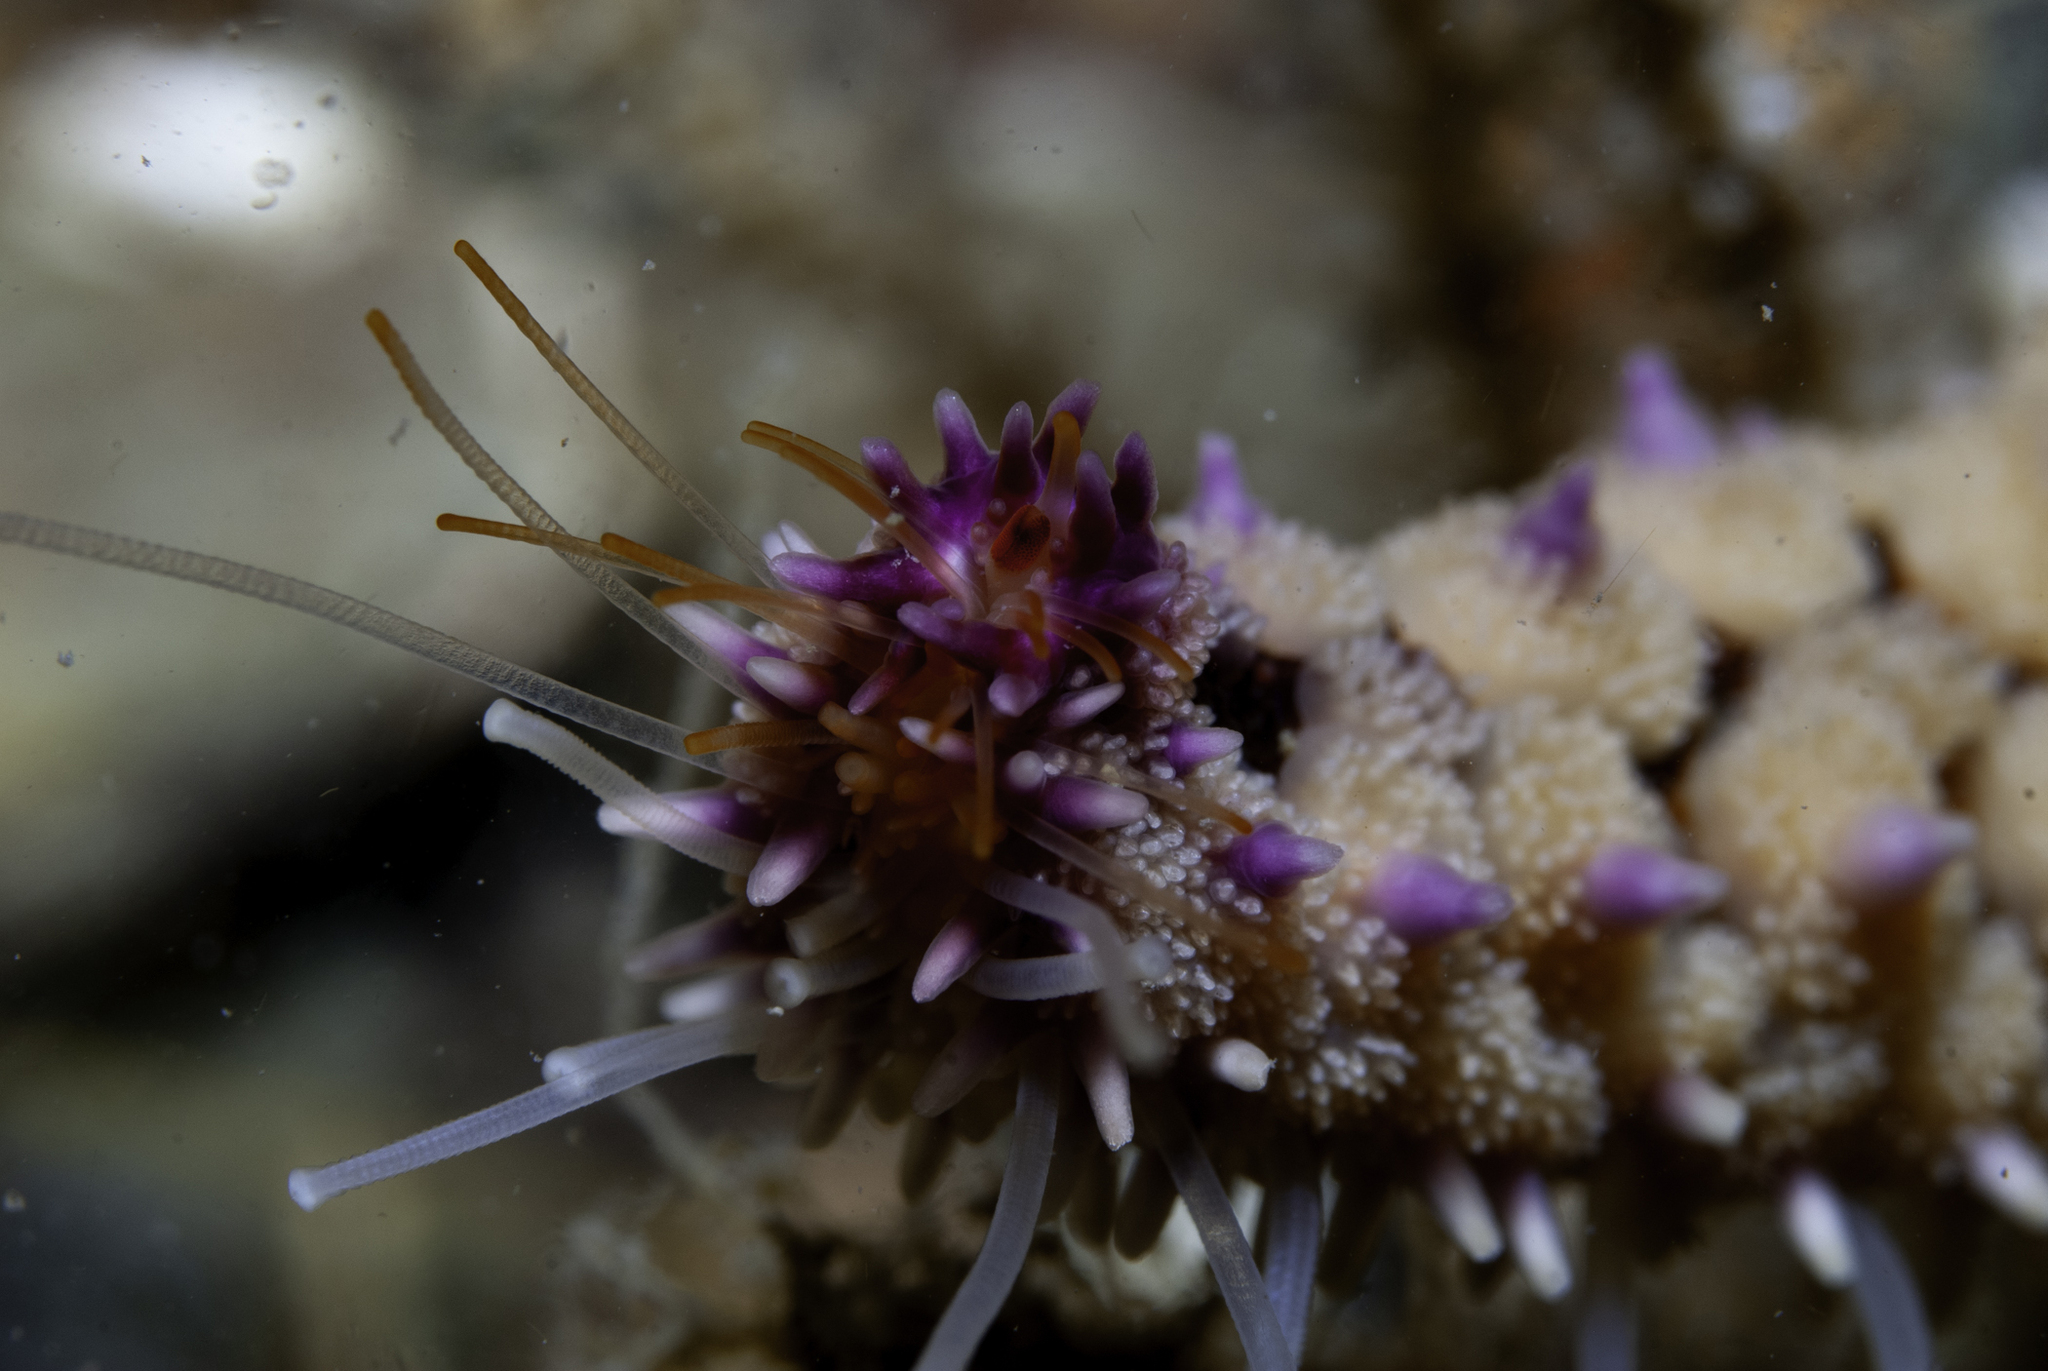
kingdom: Animalia
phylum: Echinodermata
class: Asteroidea
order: Forcipulatida
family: Asteriidae
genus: Marthasterias
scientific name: Marthasterias glacialis
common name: Spiny starfish
